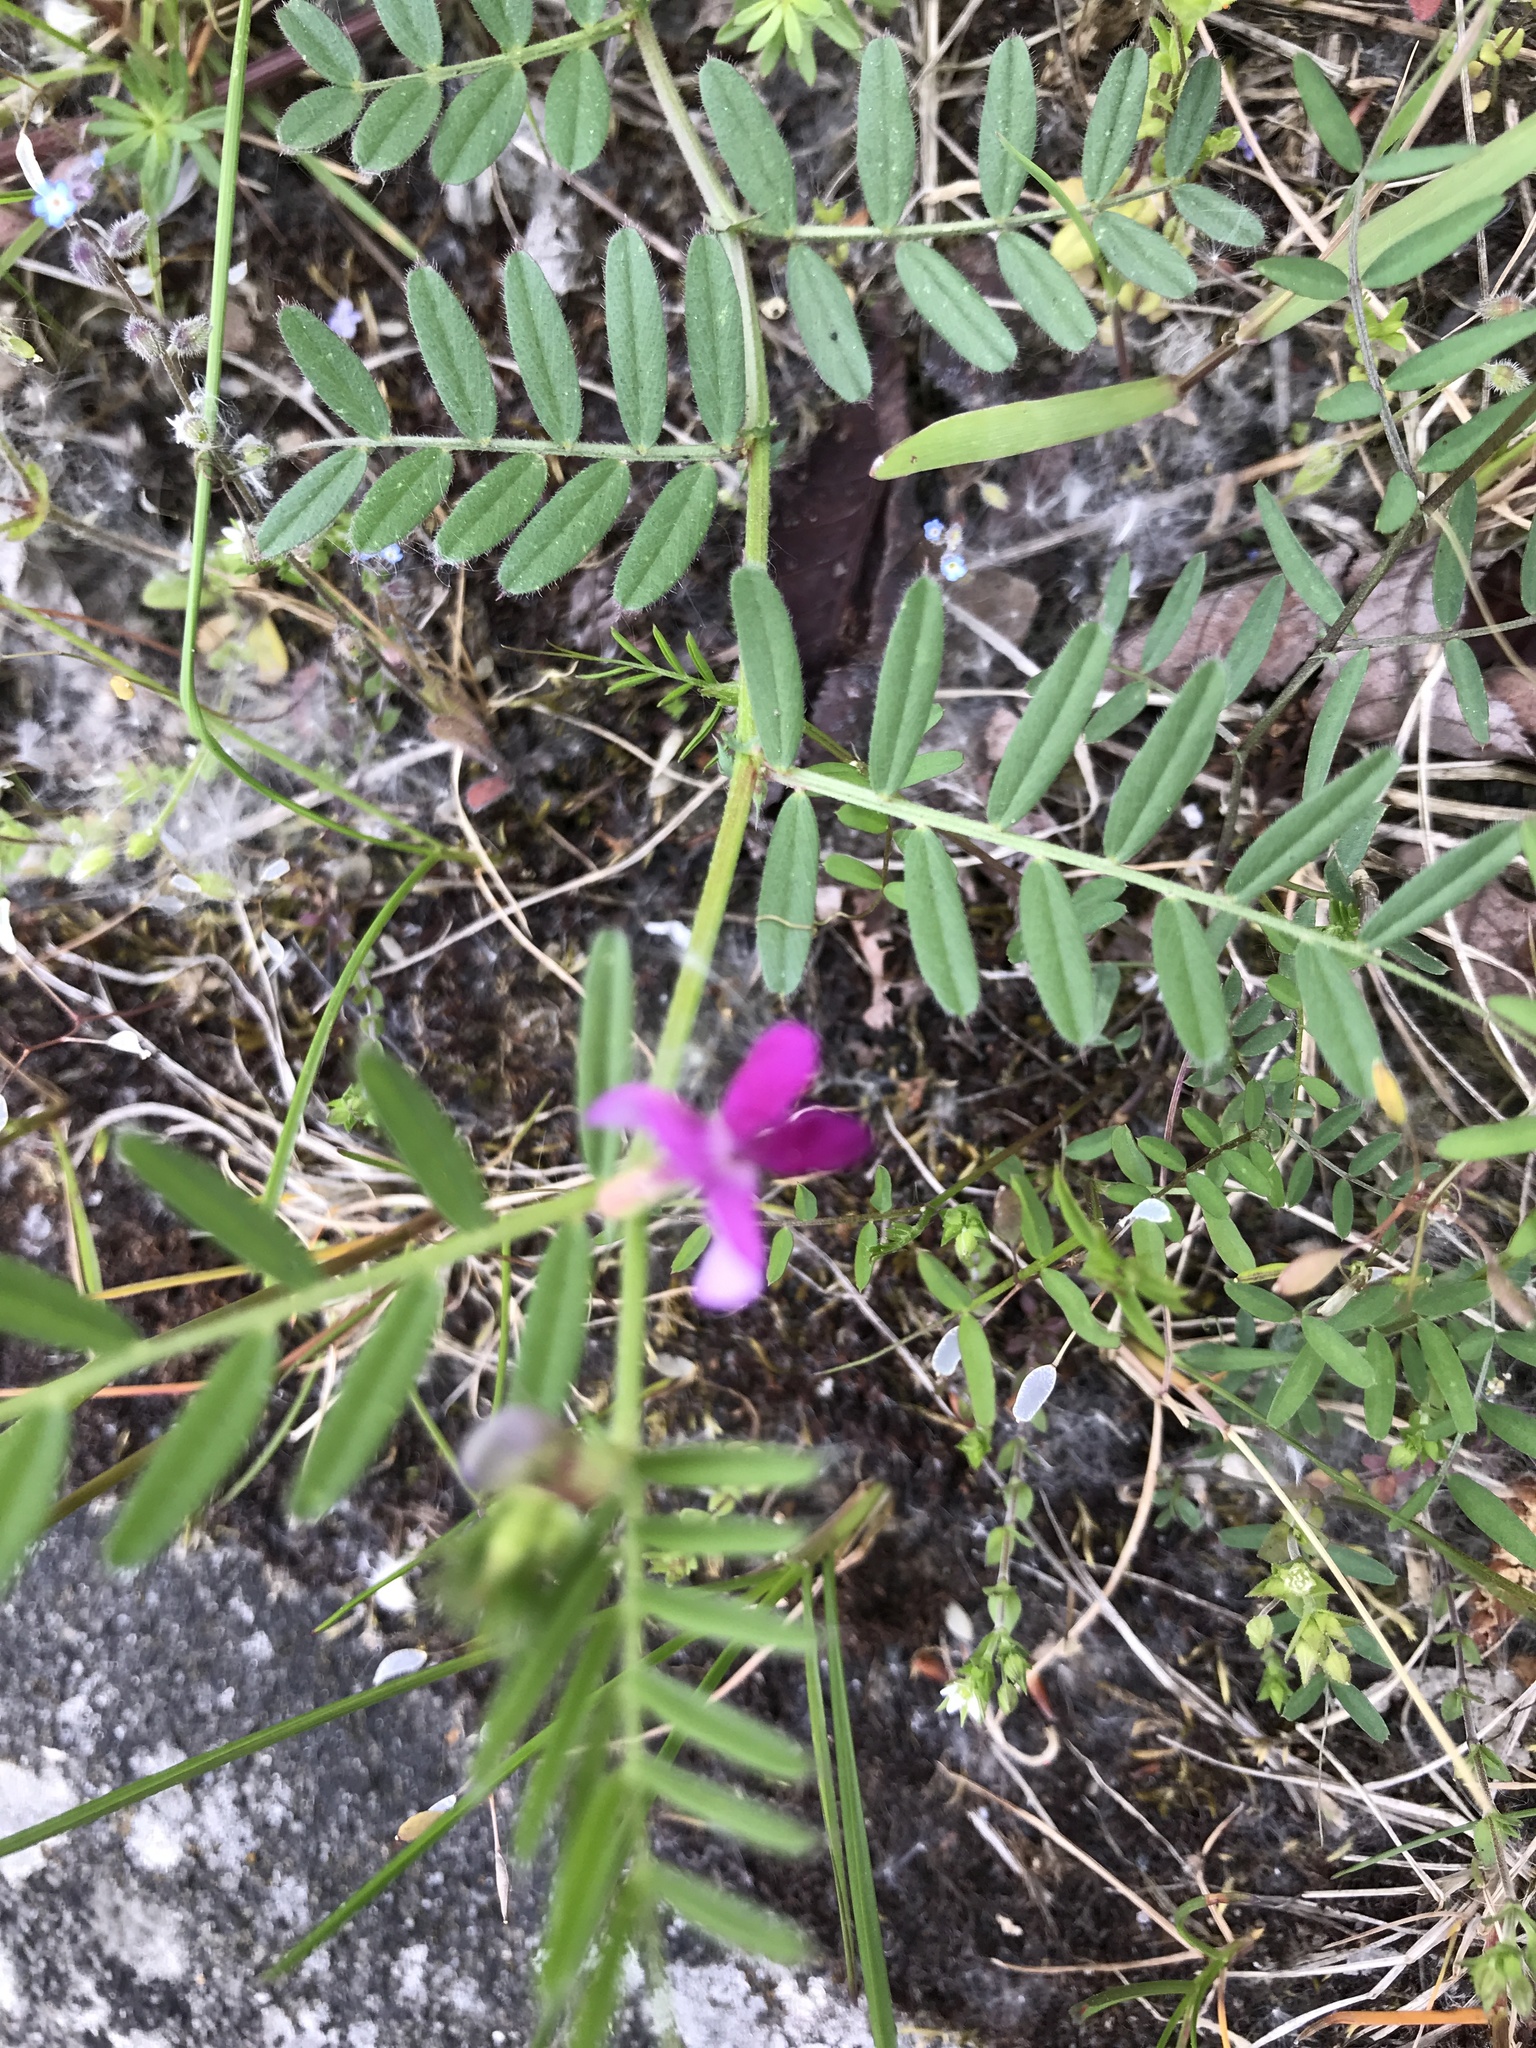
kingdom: Plantae
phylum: Tracheophyta
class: Magnoliopsida
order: Fabales
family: Fabaceae
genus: Vicia
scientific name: Vicia sativa
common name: Garden vetch
